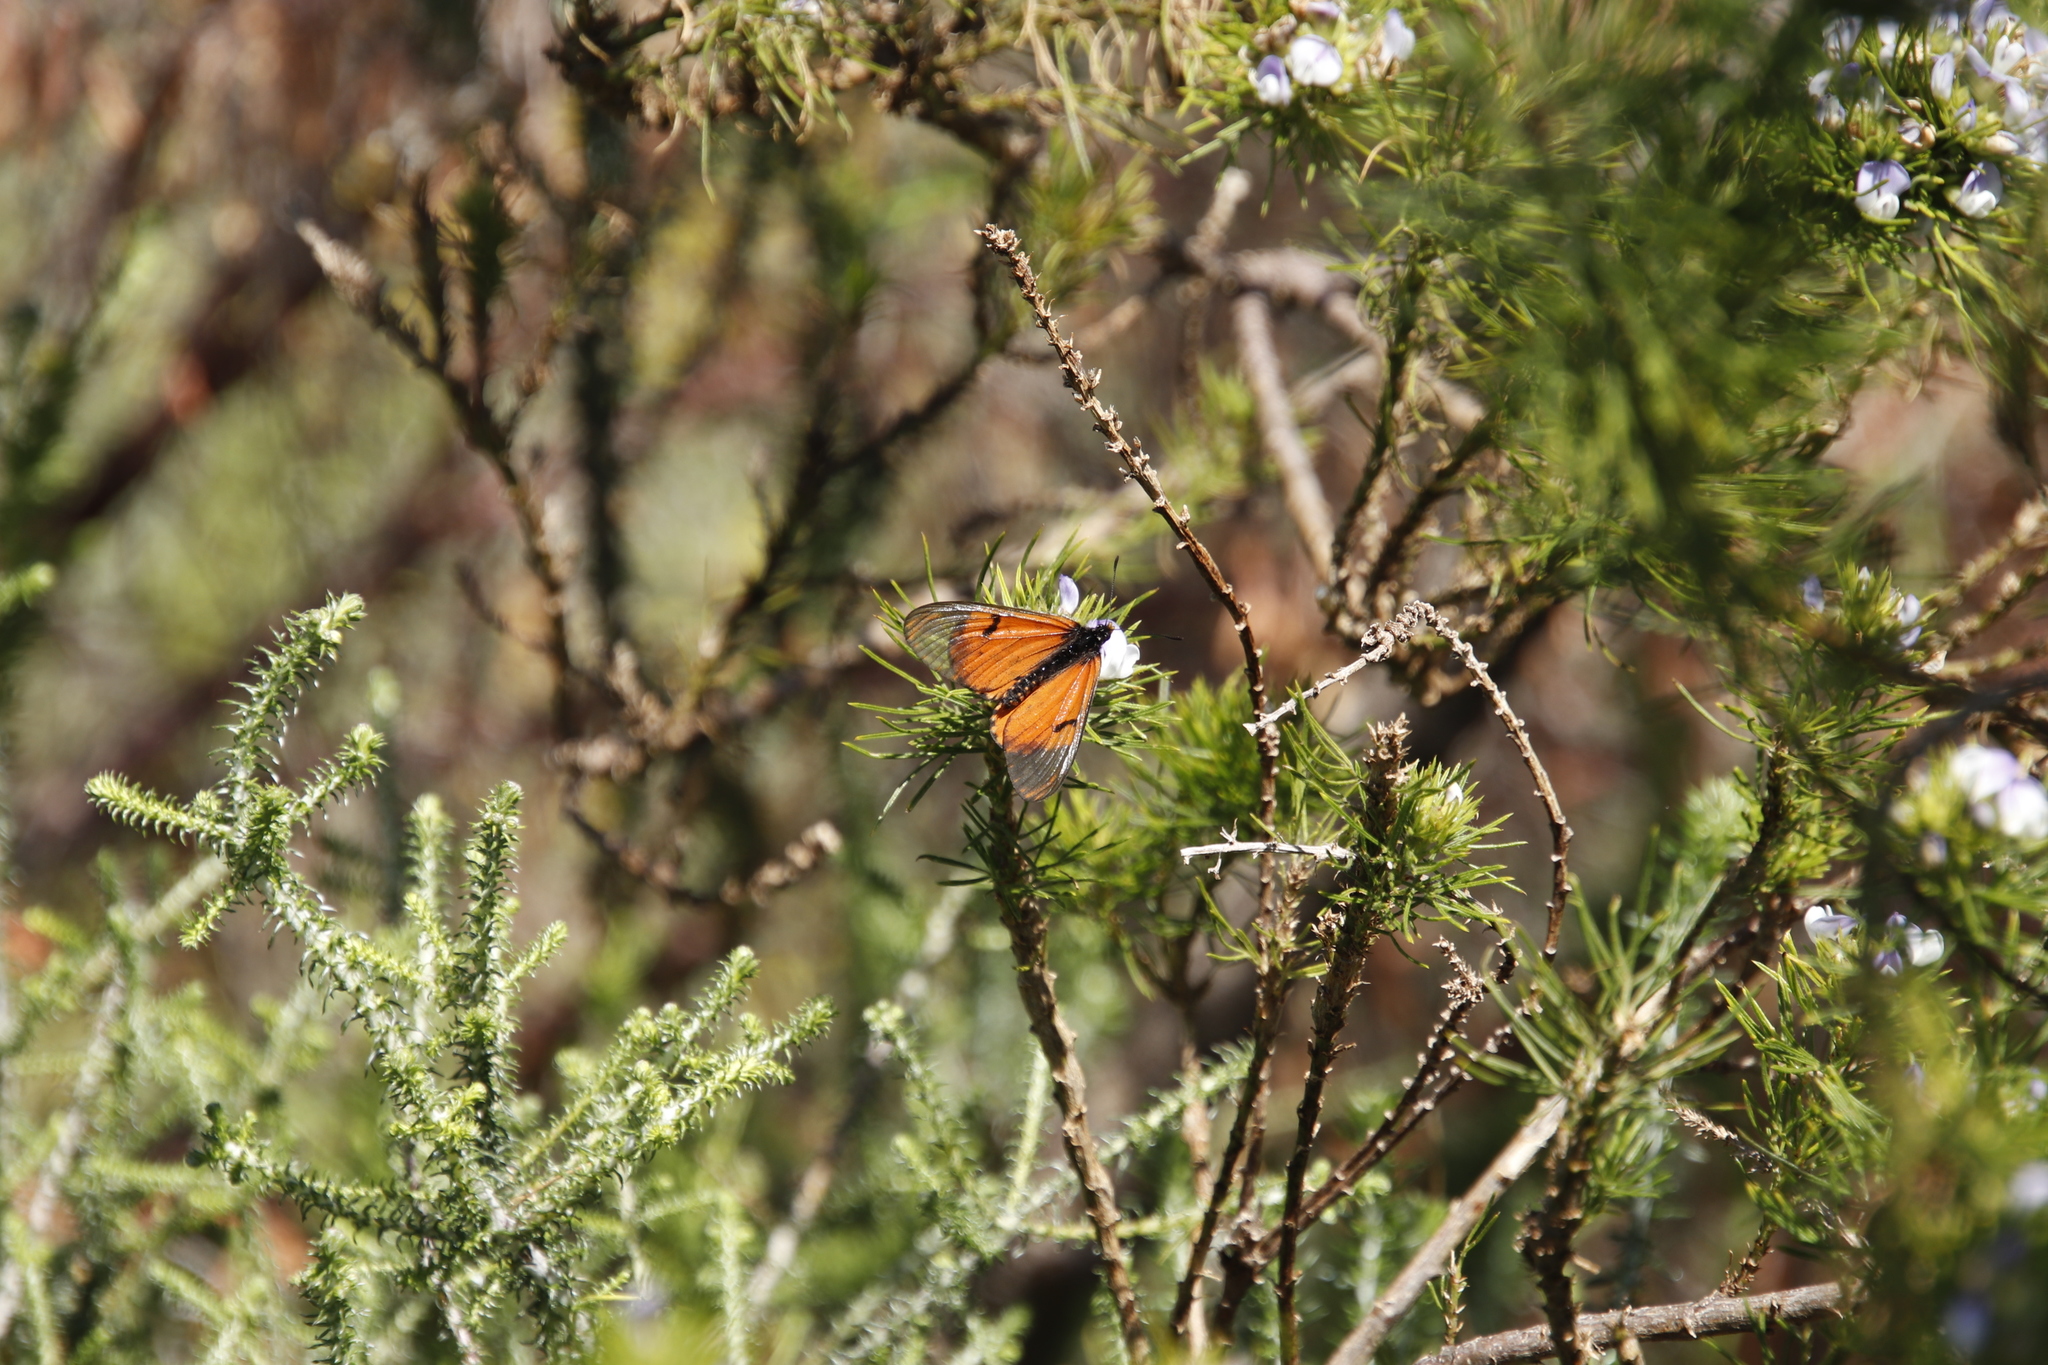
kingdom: Animalia
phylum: Arthropoda
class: Insecta
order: Lepidoptera
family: Nymphalidae
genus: Acraea
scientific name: Acraea horta
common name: Garden acraea
